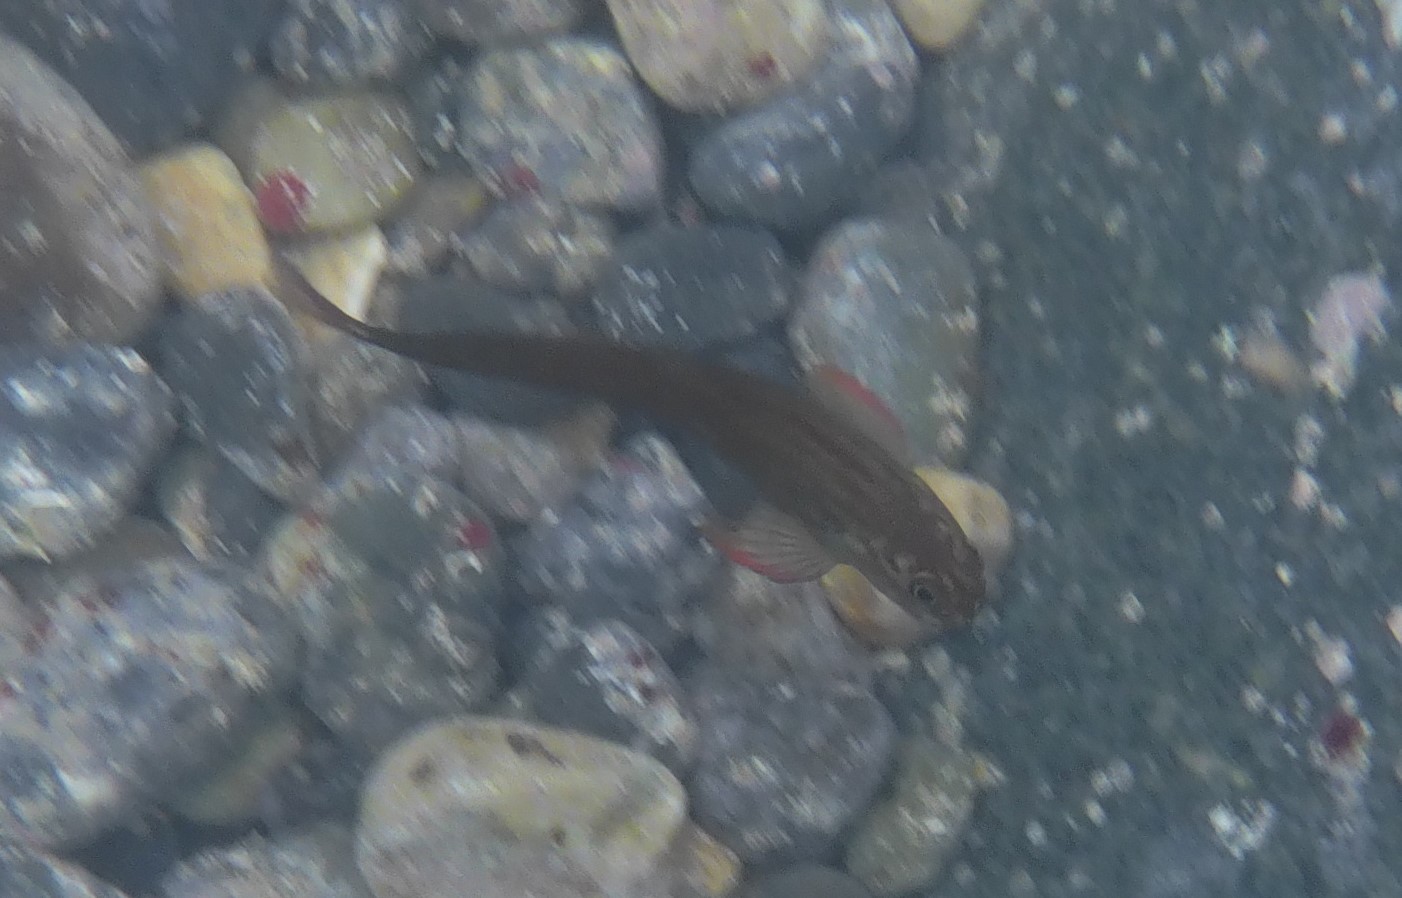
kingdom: Animalia
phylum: Chordata
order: Perciformes
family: Blenniidae
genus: Ophioblennius
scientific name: Ophioblennius macclurei
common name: Redlip blenny
